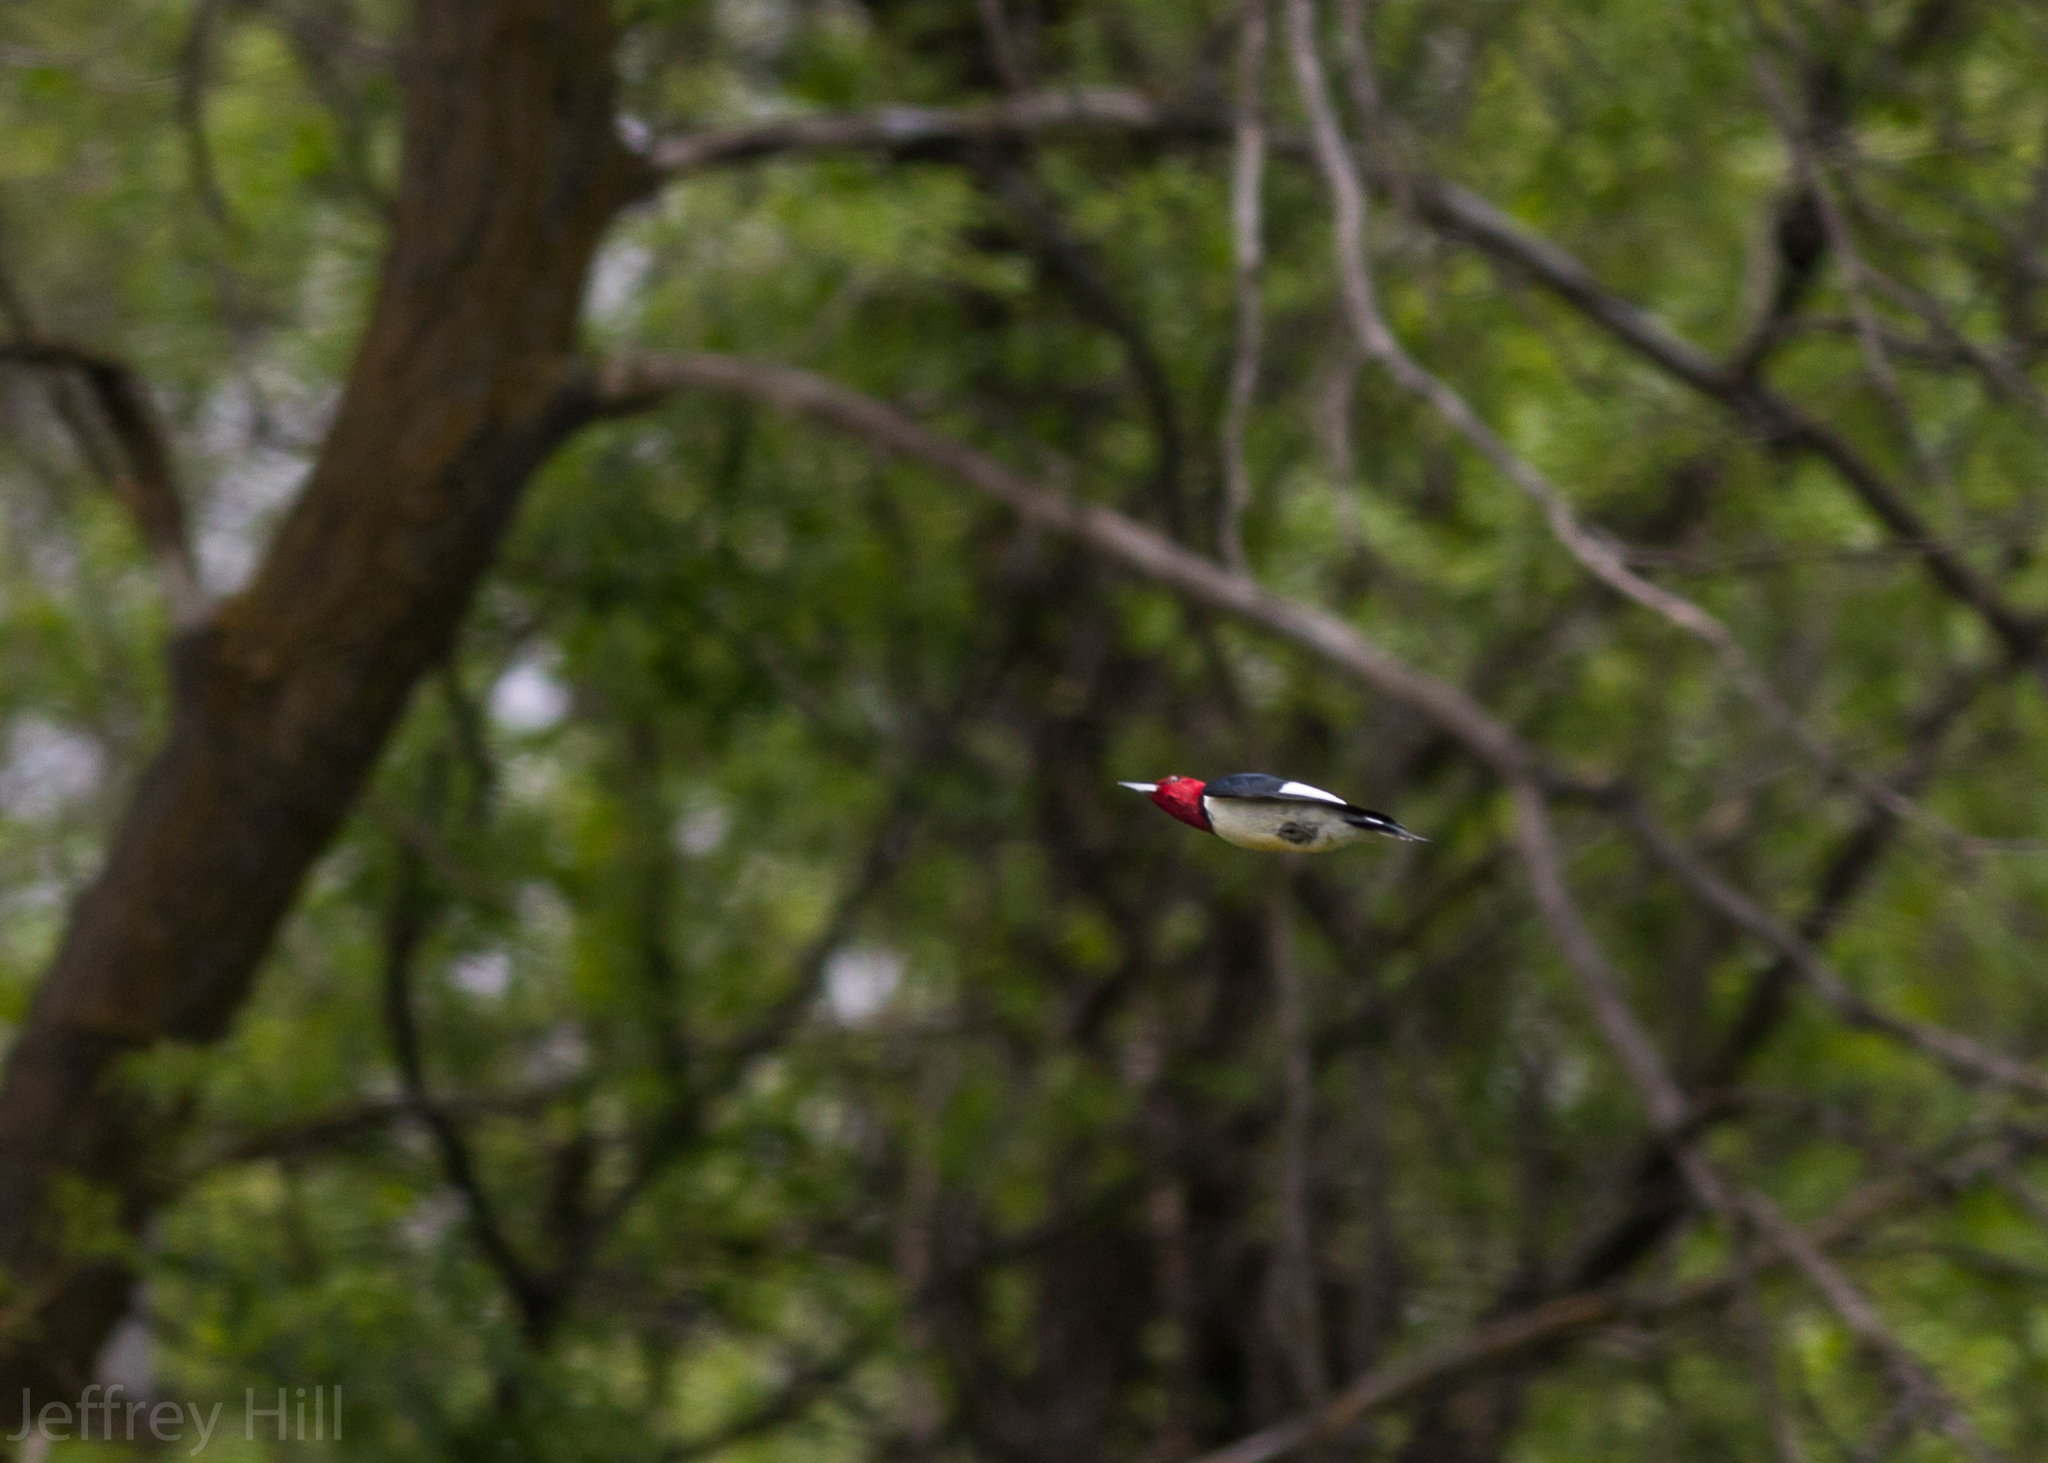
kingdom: Animalia
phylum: Chordata
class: Aves
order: Piciformes
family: Picidae
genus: Melanerpes
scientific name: Melanerpes erythrocephalus
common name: Red-headed woodpecker
